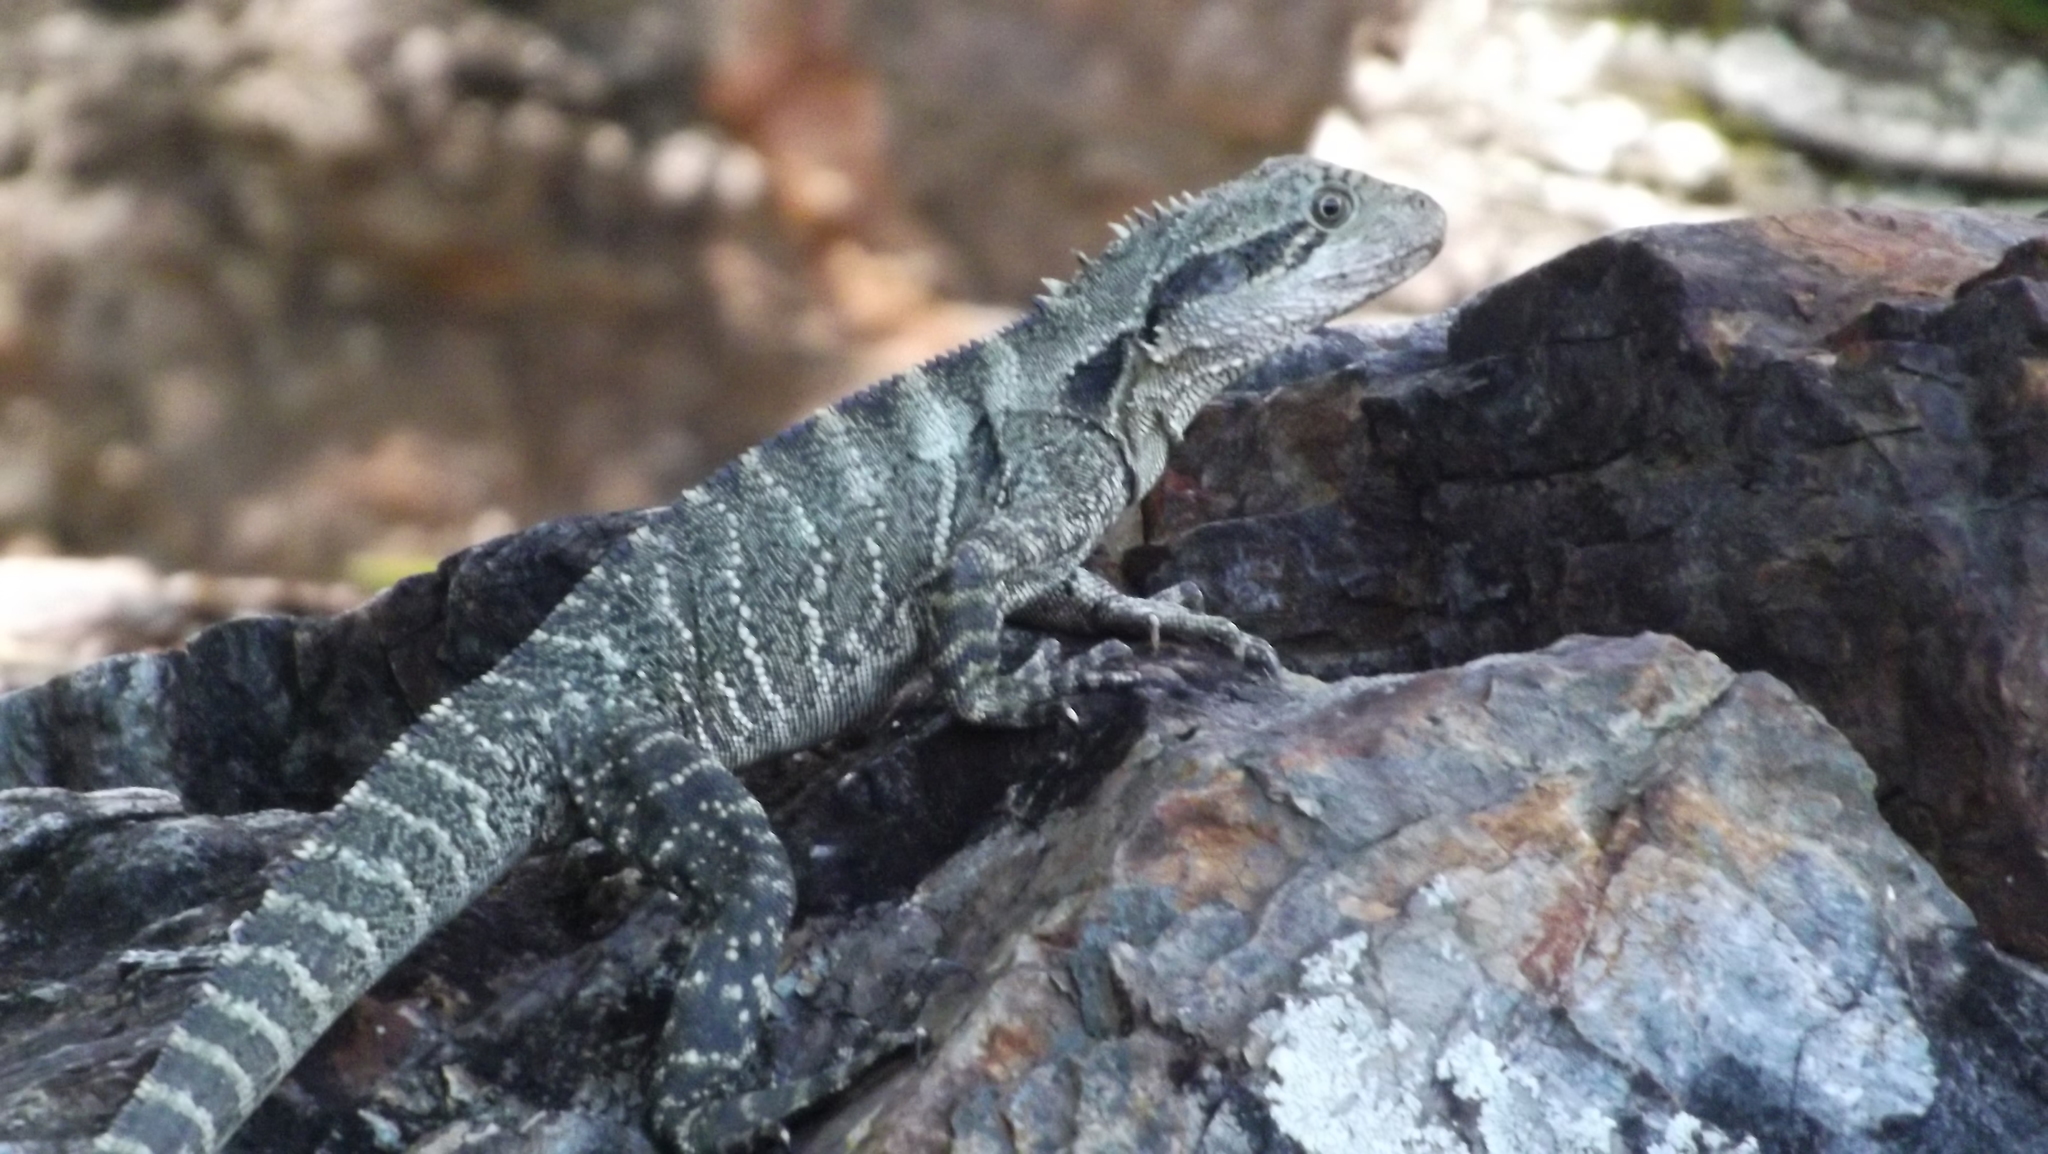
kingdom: Animalia
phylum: Chordata
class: Squamata
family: Agamidae
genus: Intellagama
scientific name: Intellagama lesueurii
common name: Eastern water dragon
